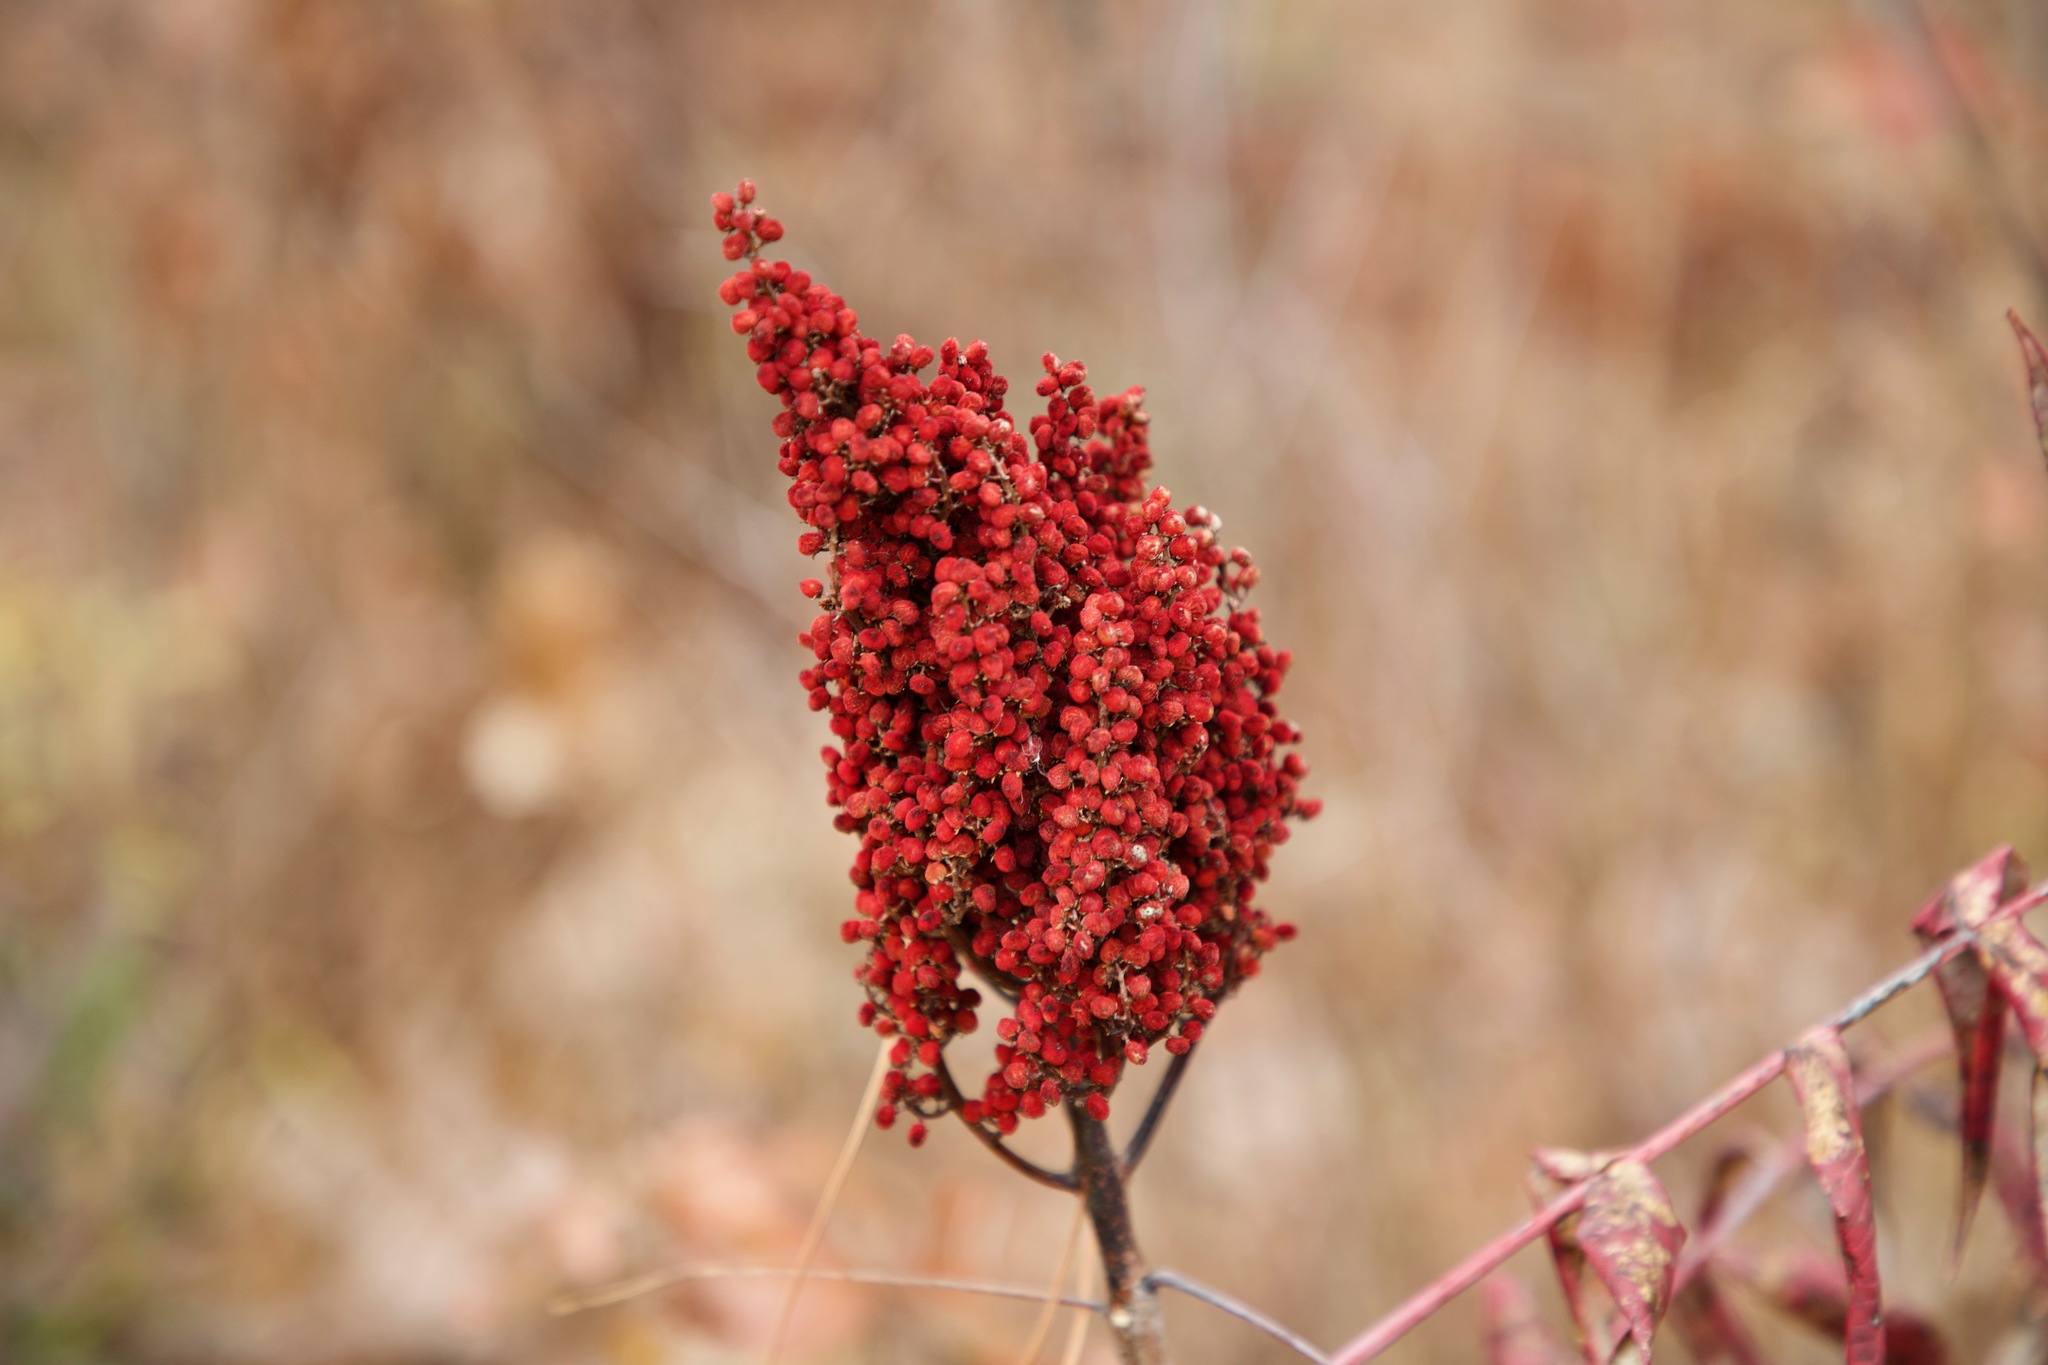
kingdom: Plantae
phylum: Tracheophyta
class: Magnoliopsida
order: Sapindales
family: Anacardiaceae
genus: Rhus
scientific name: Rhus glabra
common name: Scarlet sumac
